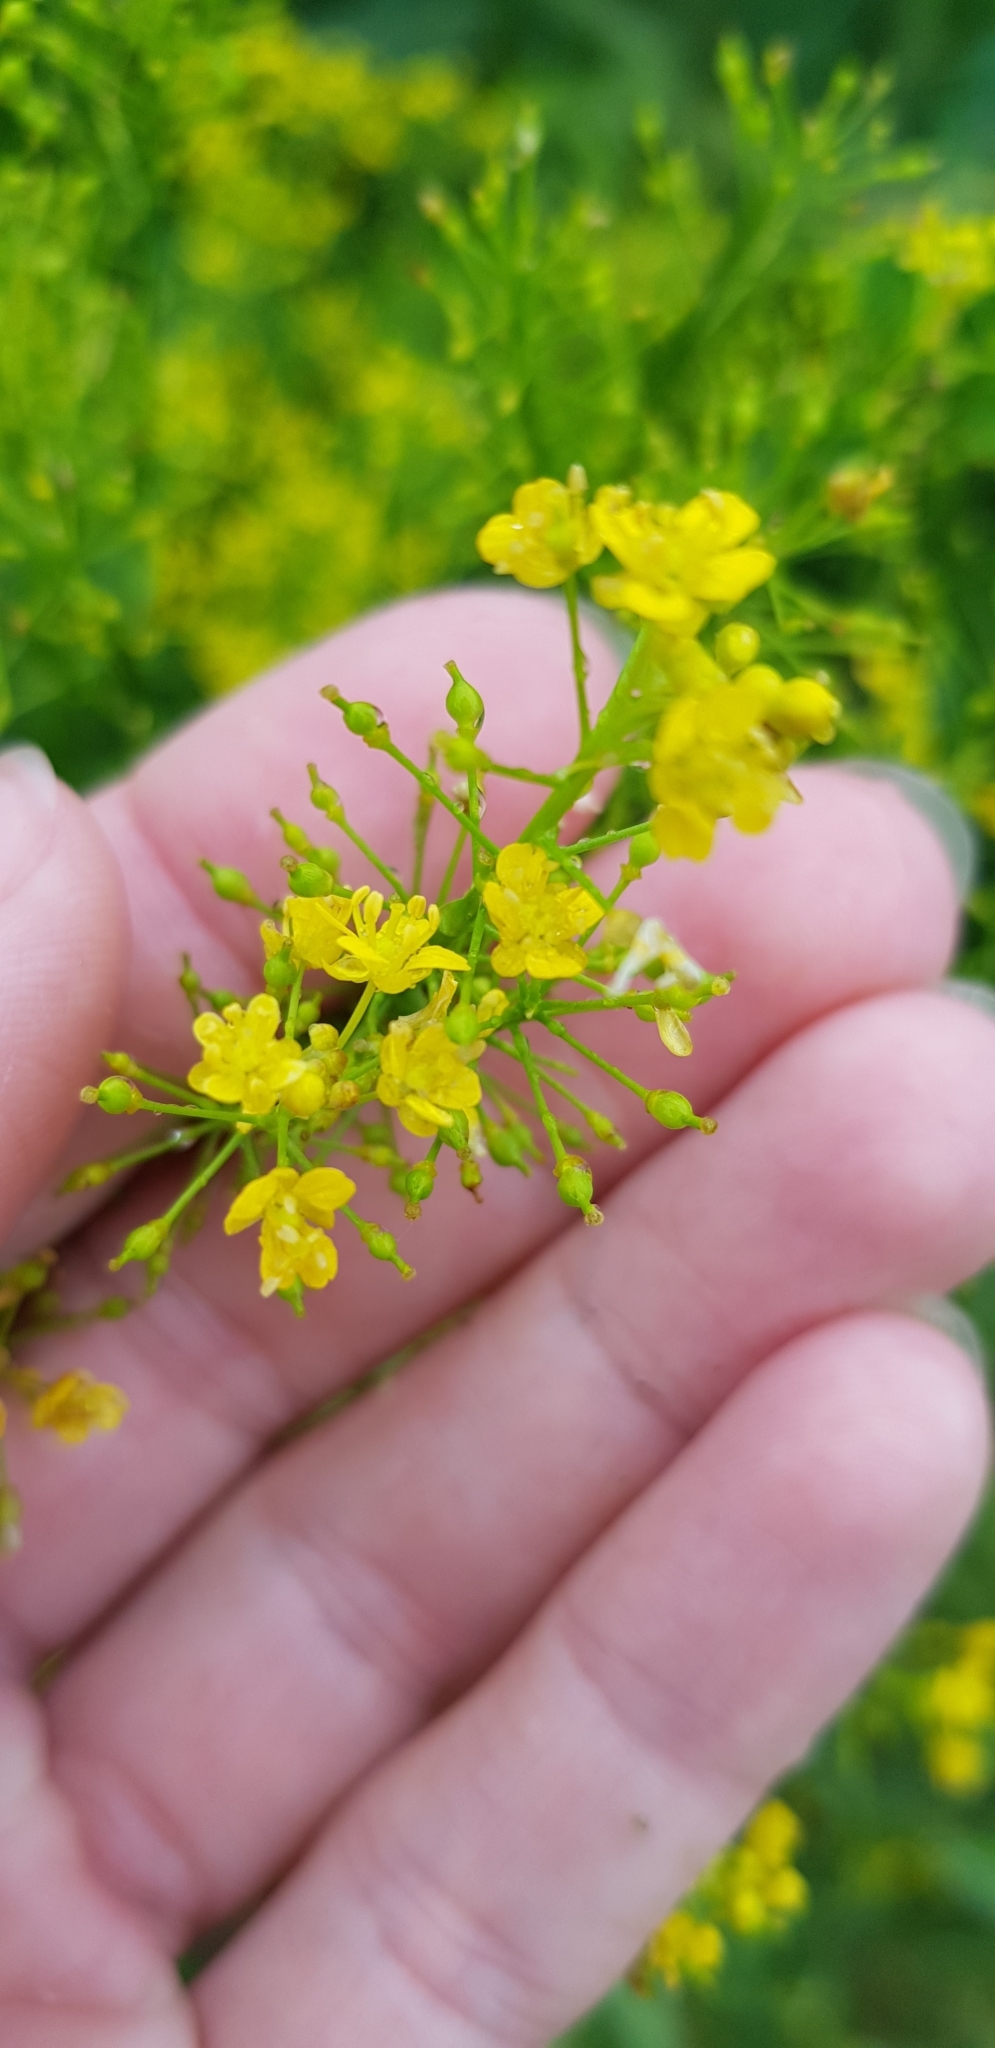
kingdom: Plantae
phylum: Tracheophyta
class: Magnoliopsida
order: Brassicales
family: Brassicaceae
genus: Rorippa
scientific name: Rorippa austriaca
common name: Austrian yellow-cress
